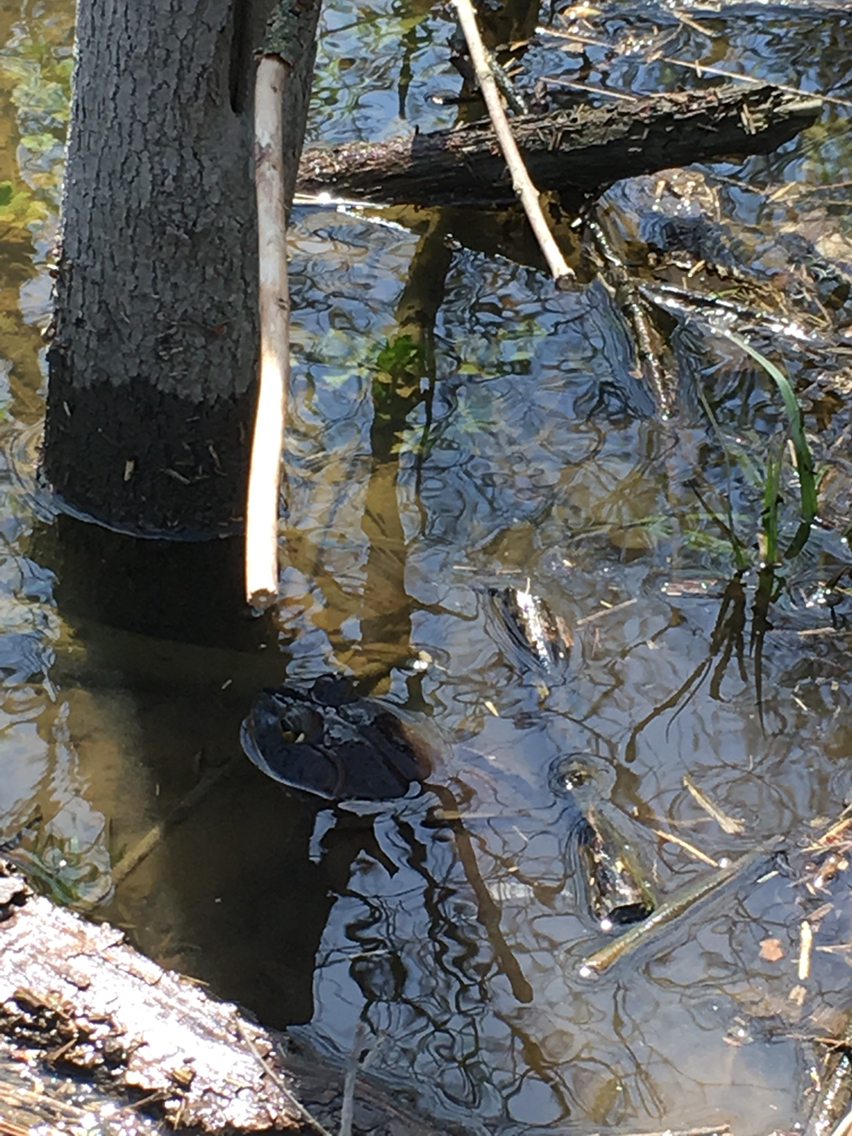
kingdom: Animalia
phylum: Chordata
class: Amphibia
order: Anura
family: Ranidae
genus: Lithobates
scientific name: Lithobates catesbeianus
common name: American bullfrog
